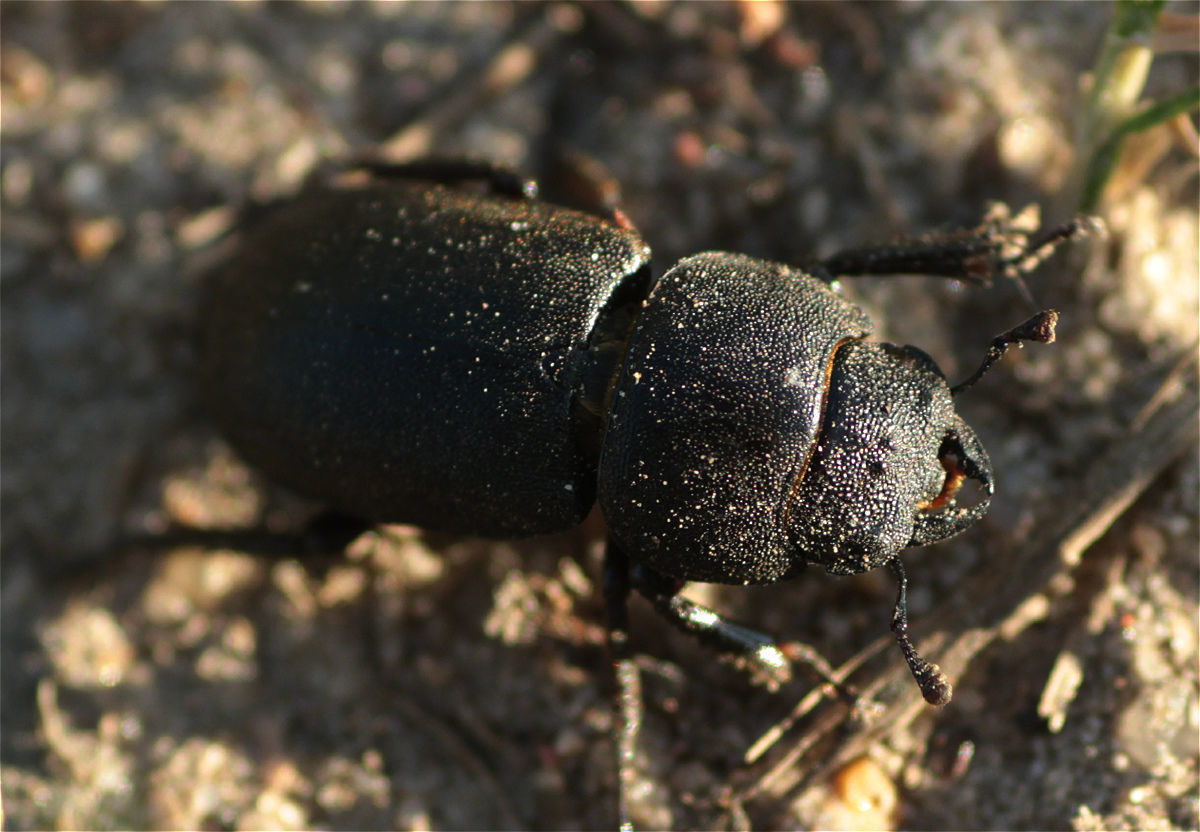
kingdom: Animalia
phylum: Arthropoda
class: Insecta
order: Coleoptera
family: Lucanidae
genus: Dorcus
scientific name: Dorcus parallelipipedus
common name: Lesser stag beetle
